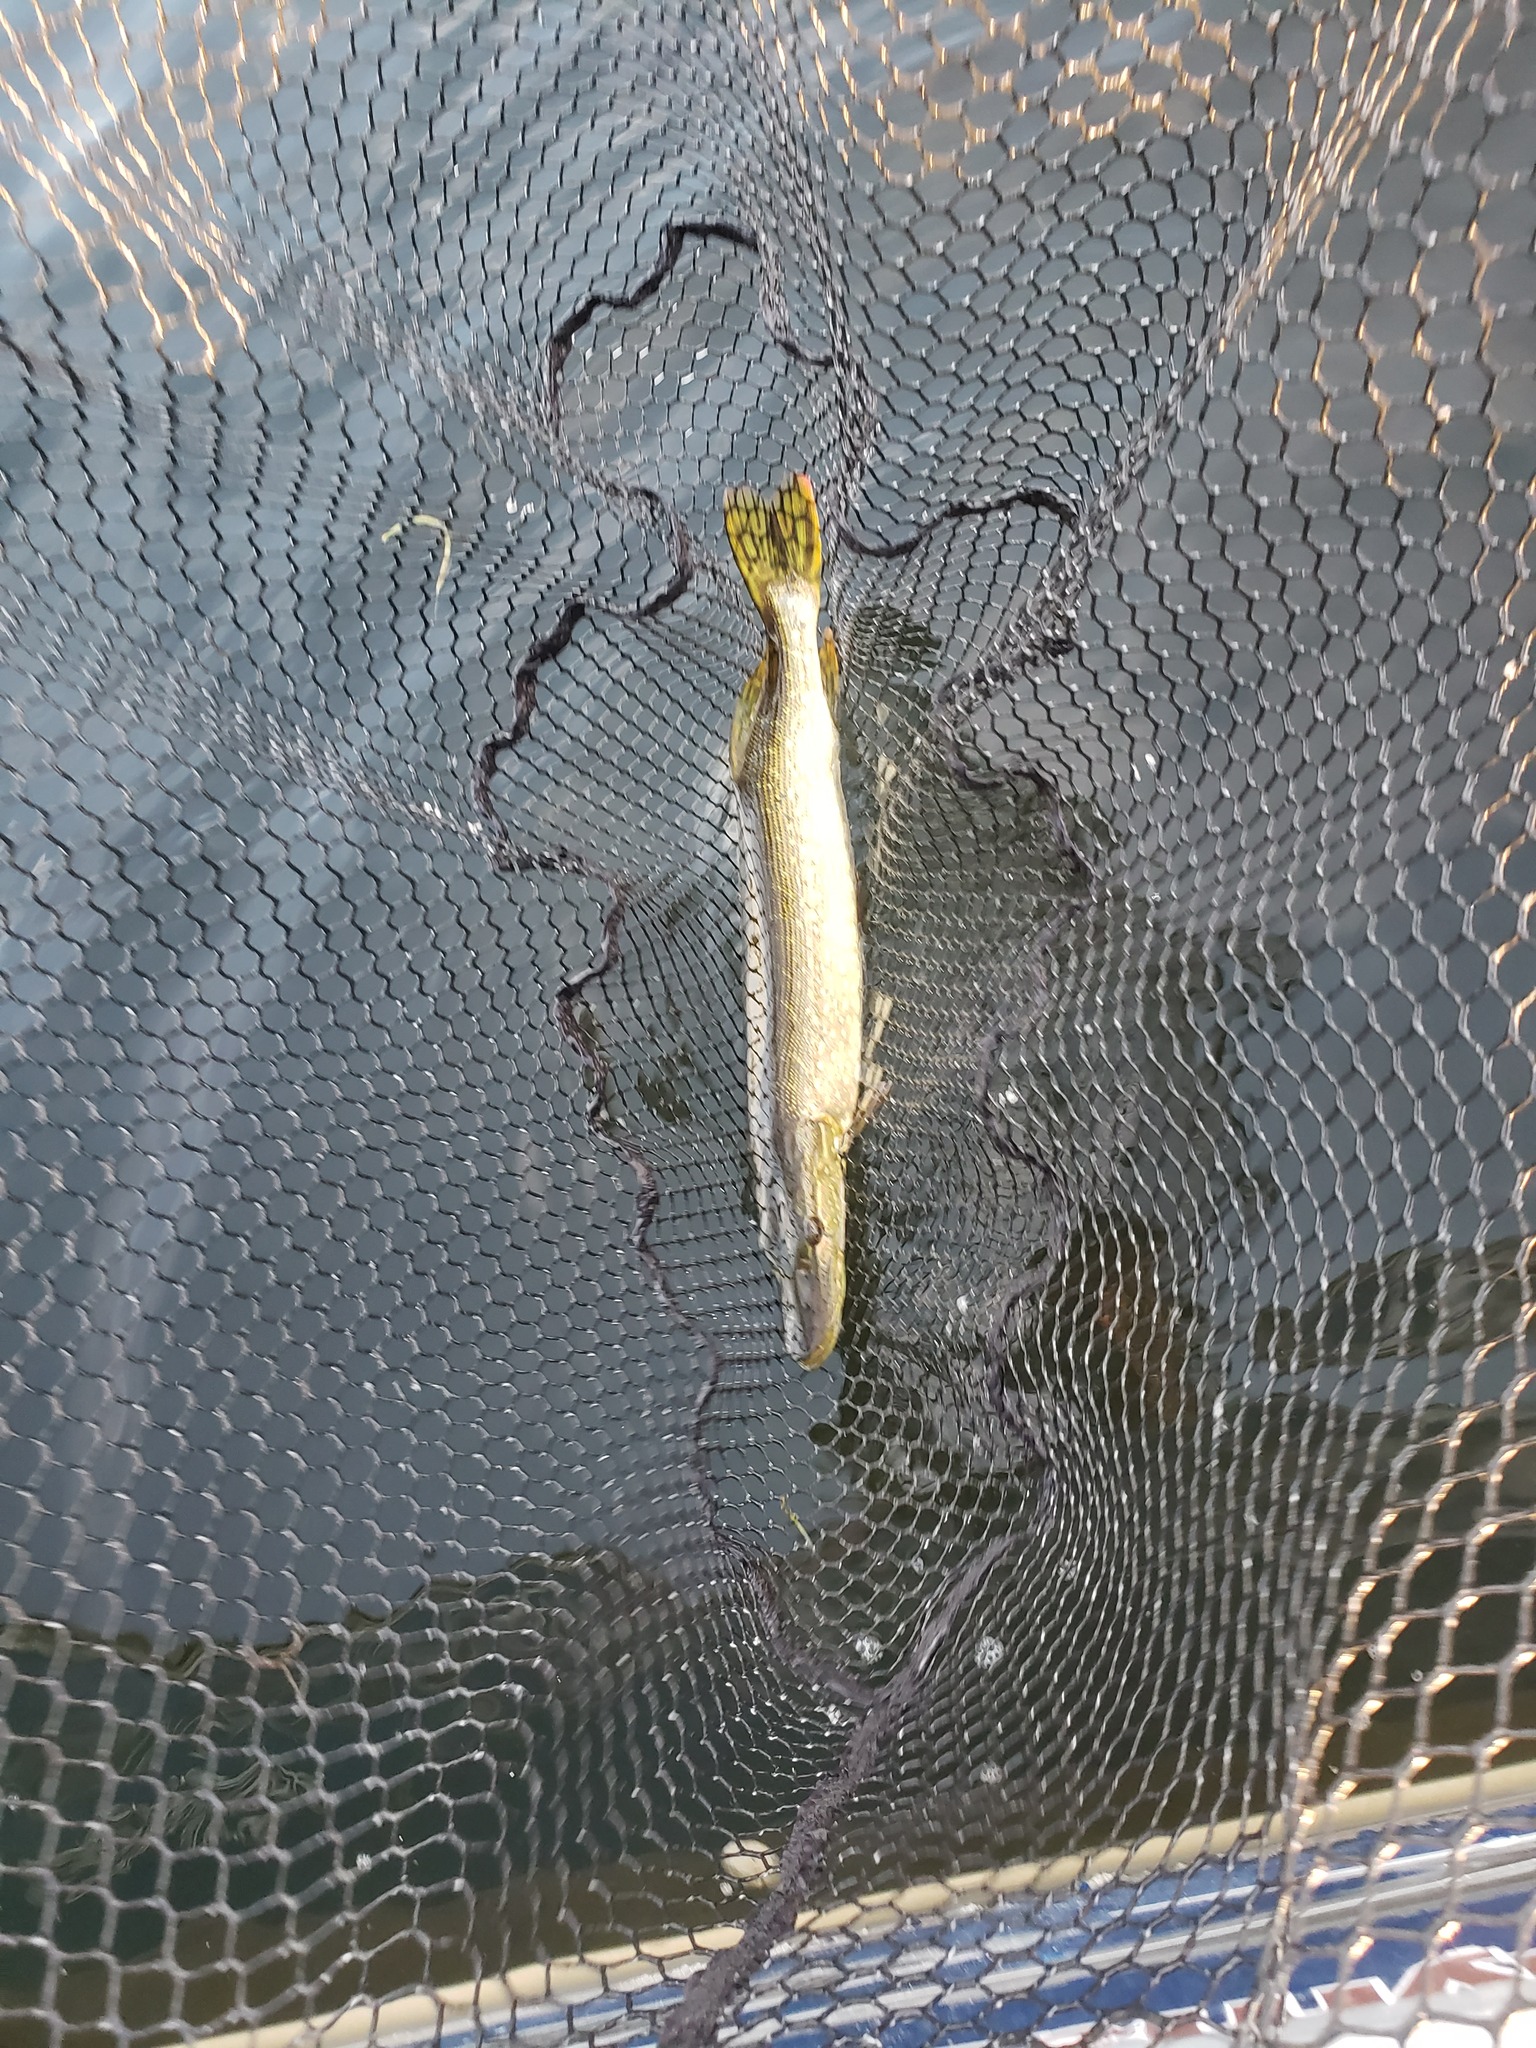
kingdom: Animalia
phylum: Chordata
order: Esociformes
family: Esocidae
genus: Esox
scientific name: Esox lucius
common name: Northern pike
